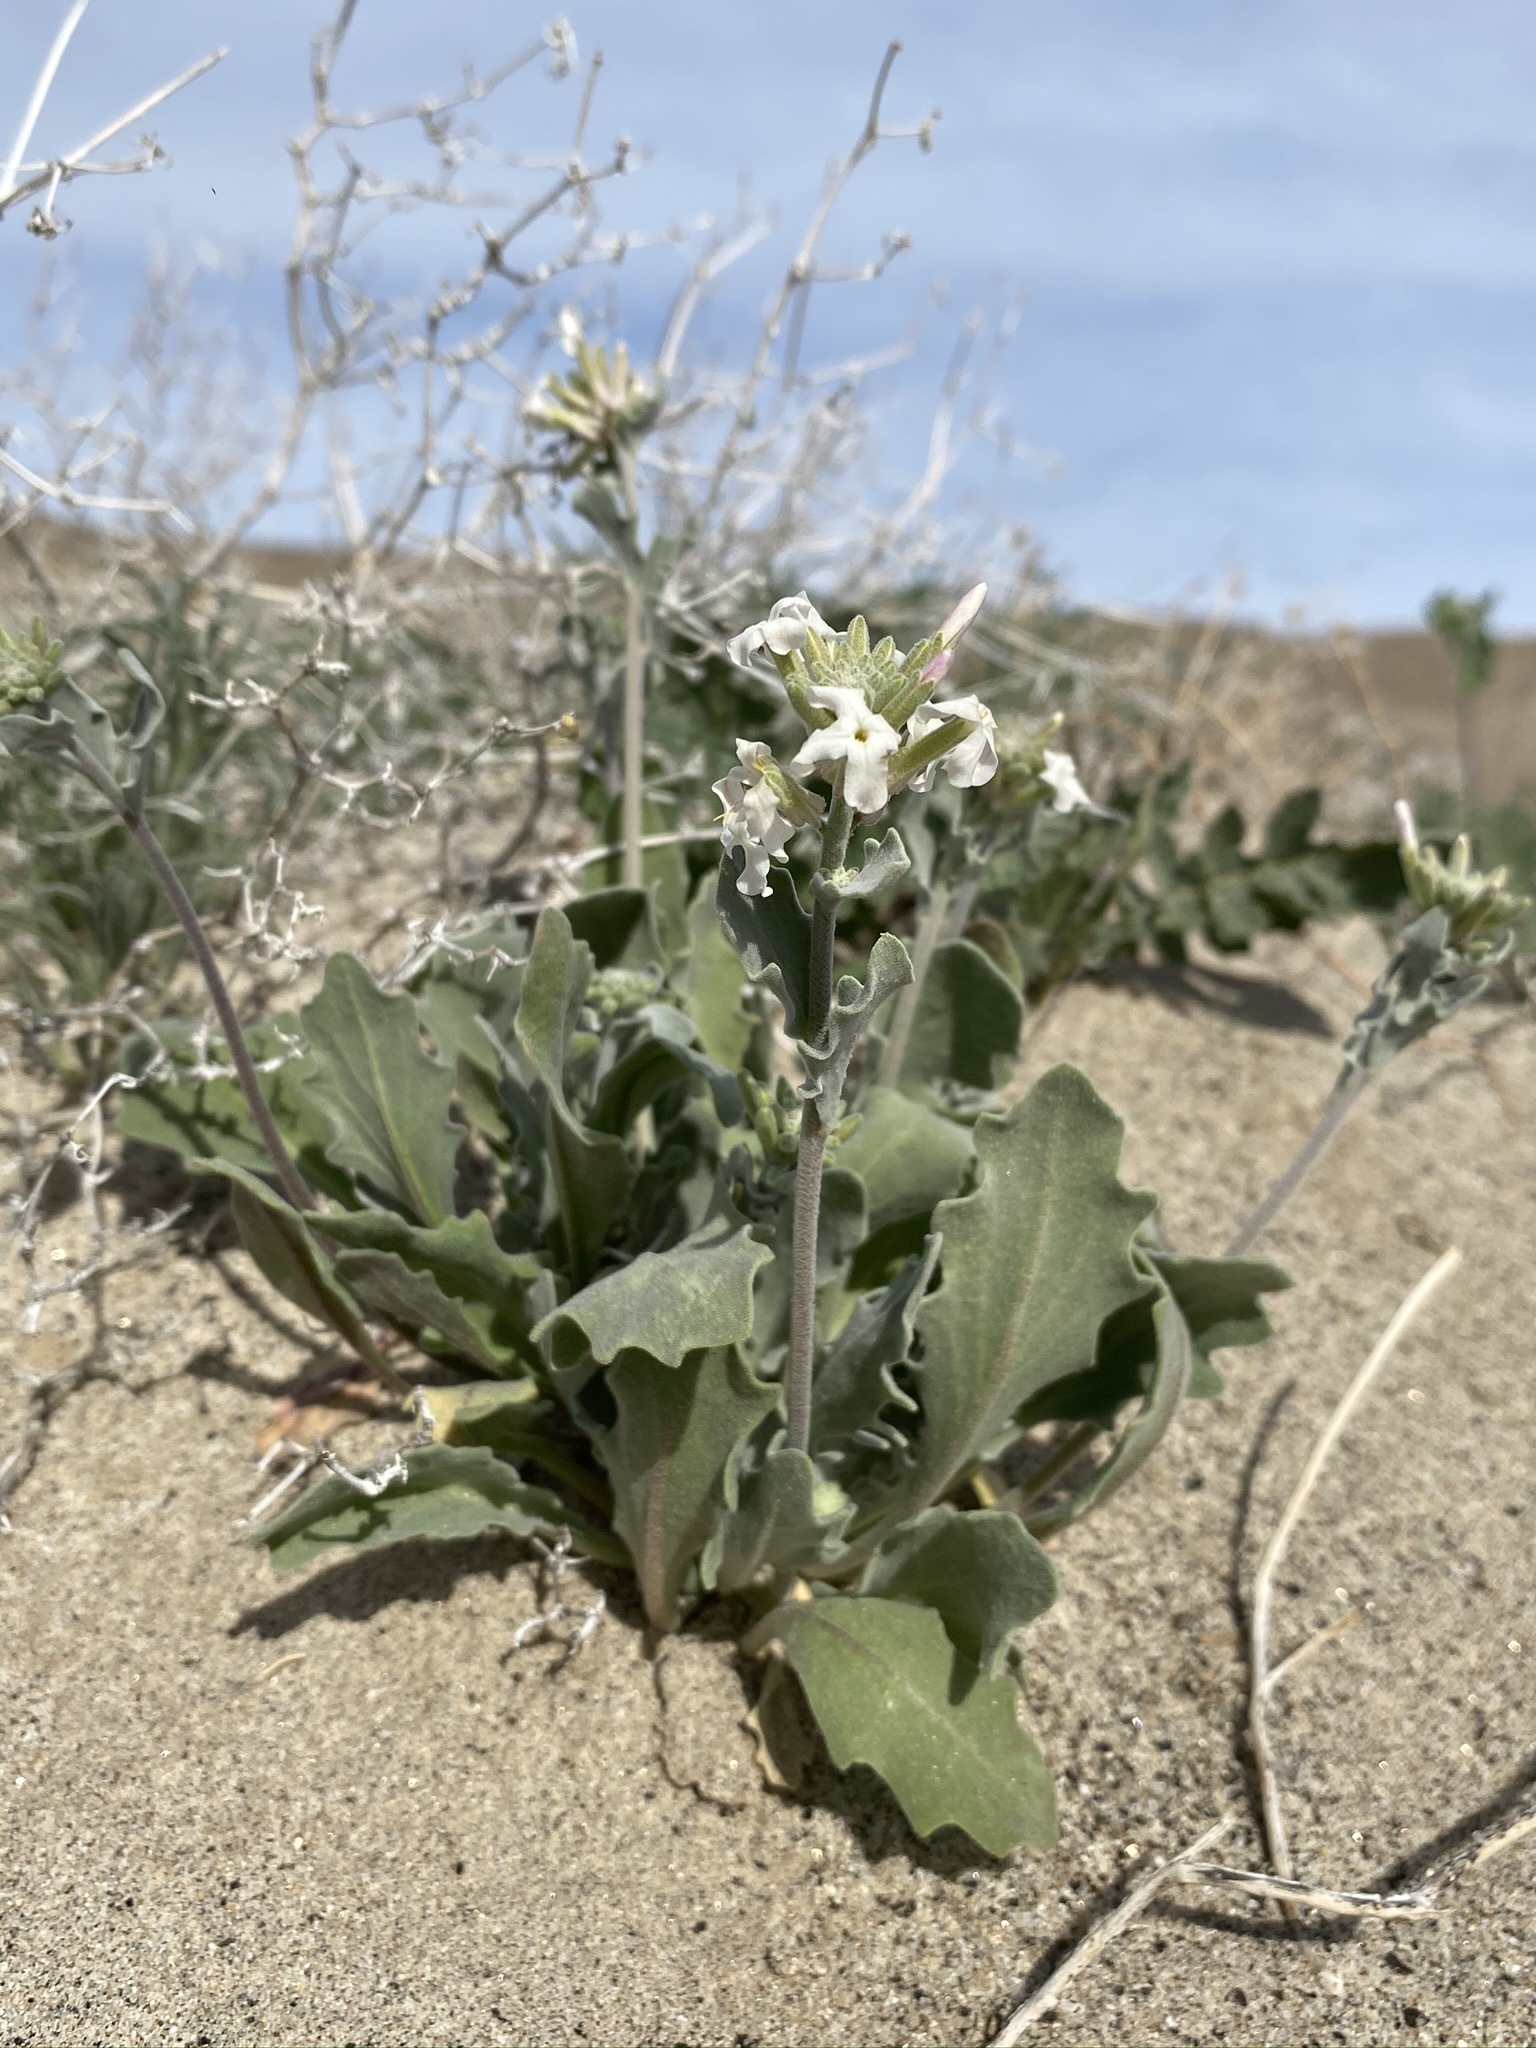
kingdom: Plantae
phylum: Tracheophyta
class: Magnoliopsida
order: Brassicales
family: Brassicaceae
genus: Dithyrea
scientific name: Dithyrea californica
